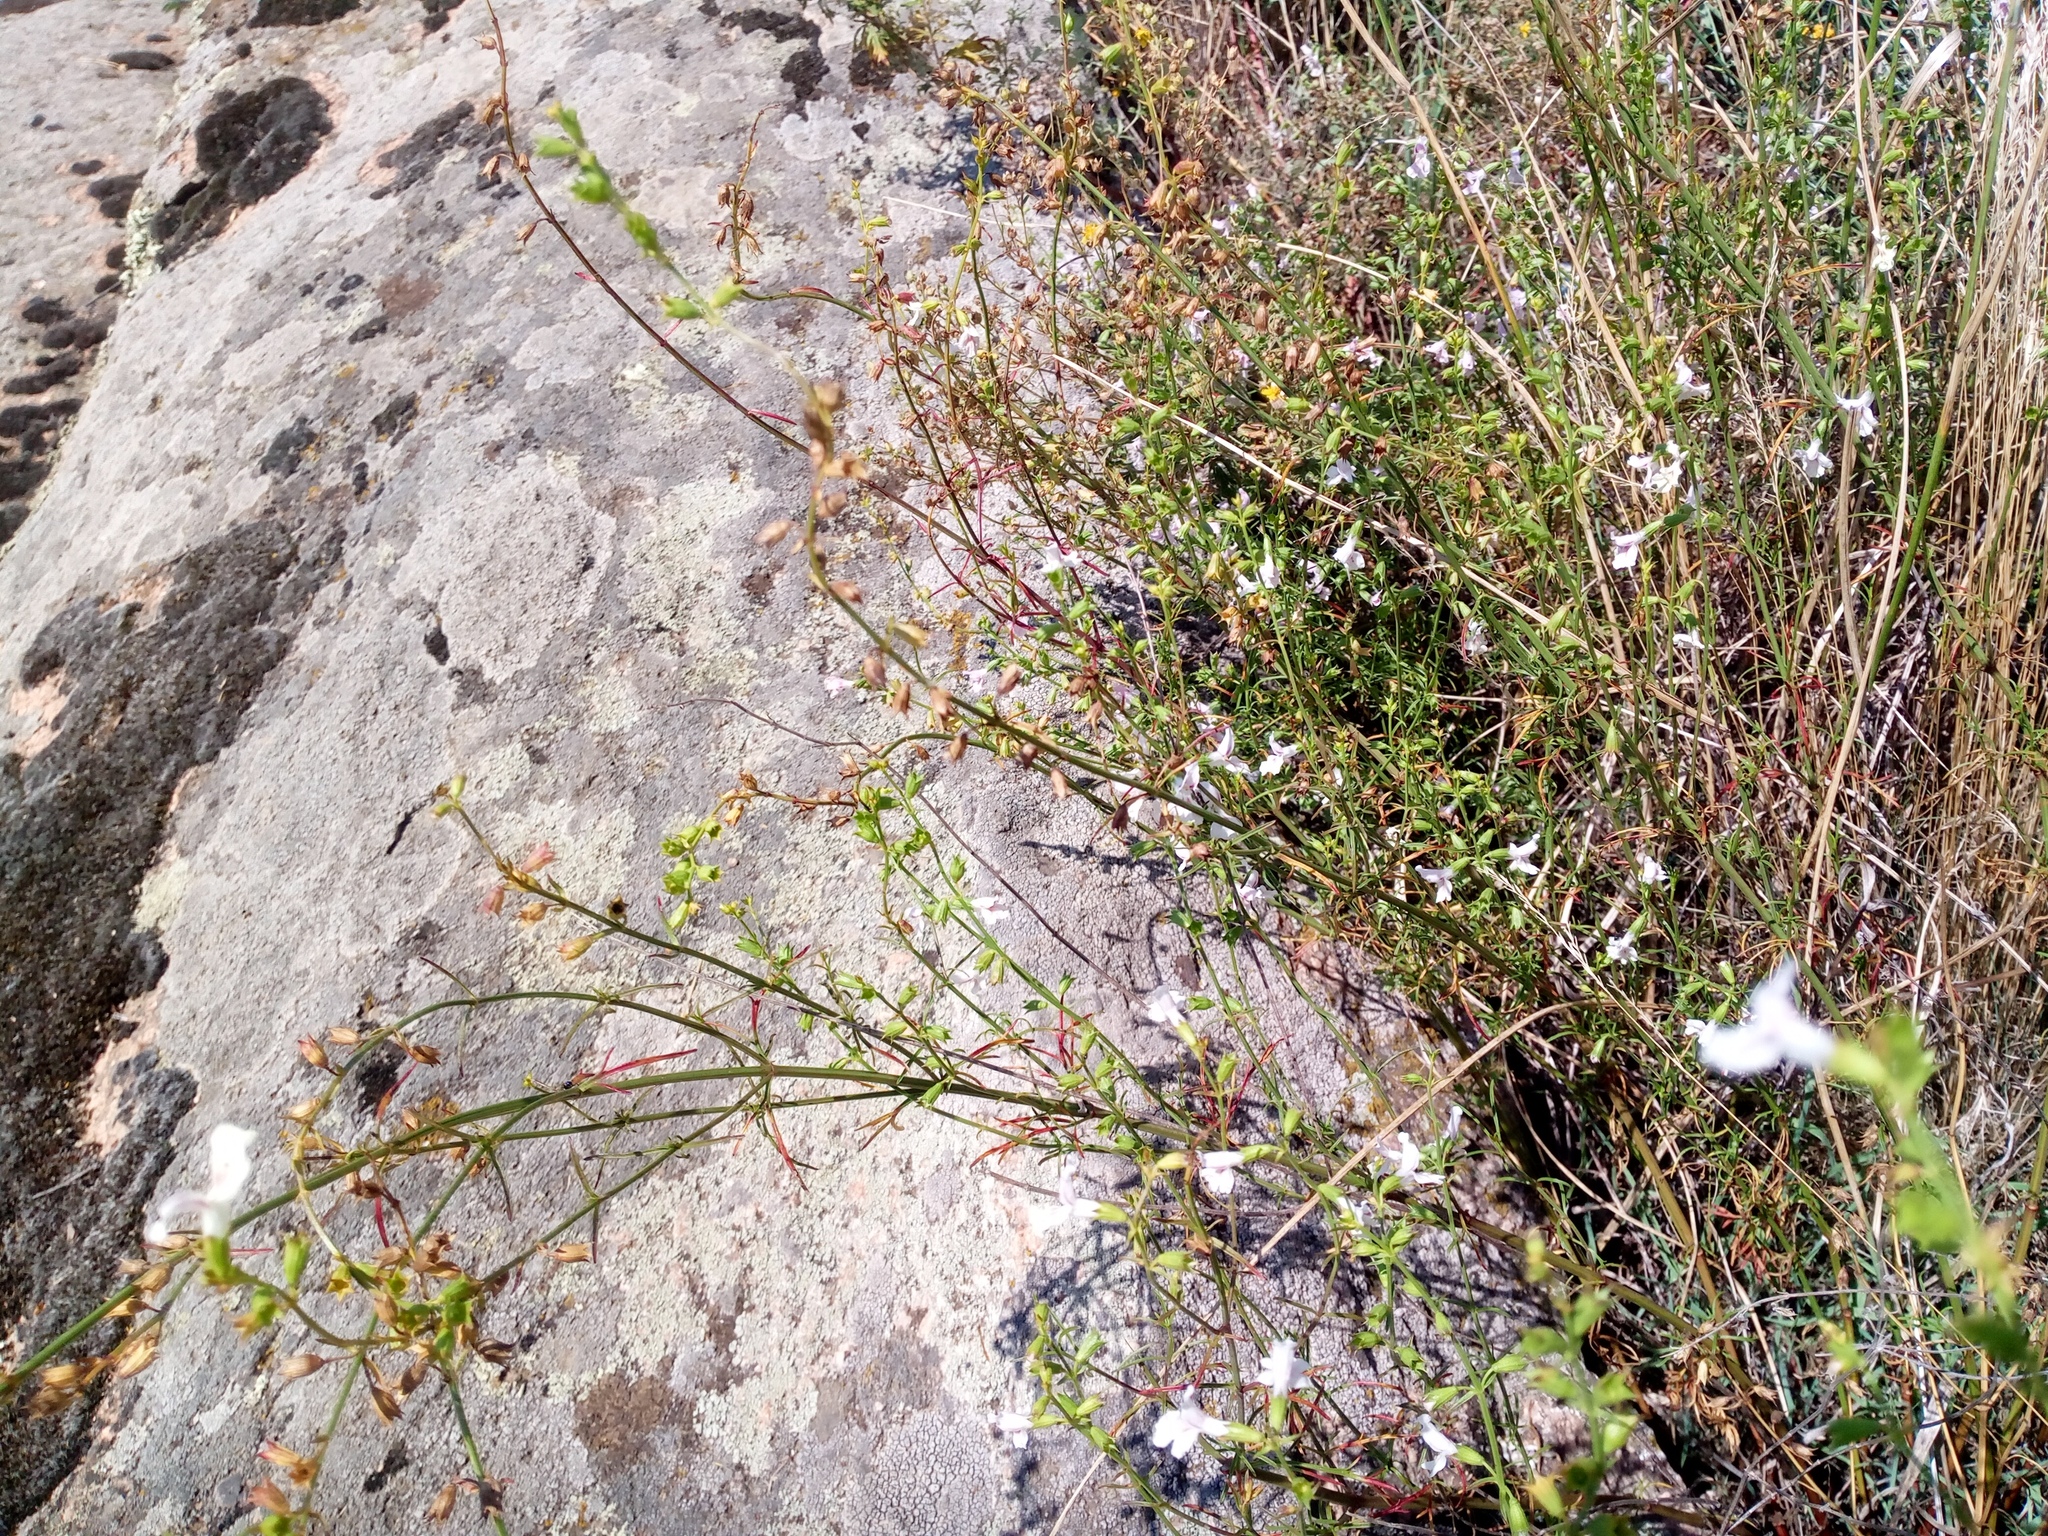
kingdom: Plantae
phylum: Tracheophyta
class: Magnoliopsida
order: Lamiales
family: Lamiaceae
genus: Stachys
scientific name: Stachys angustifolia
